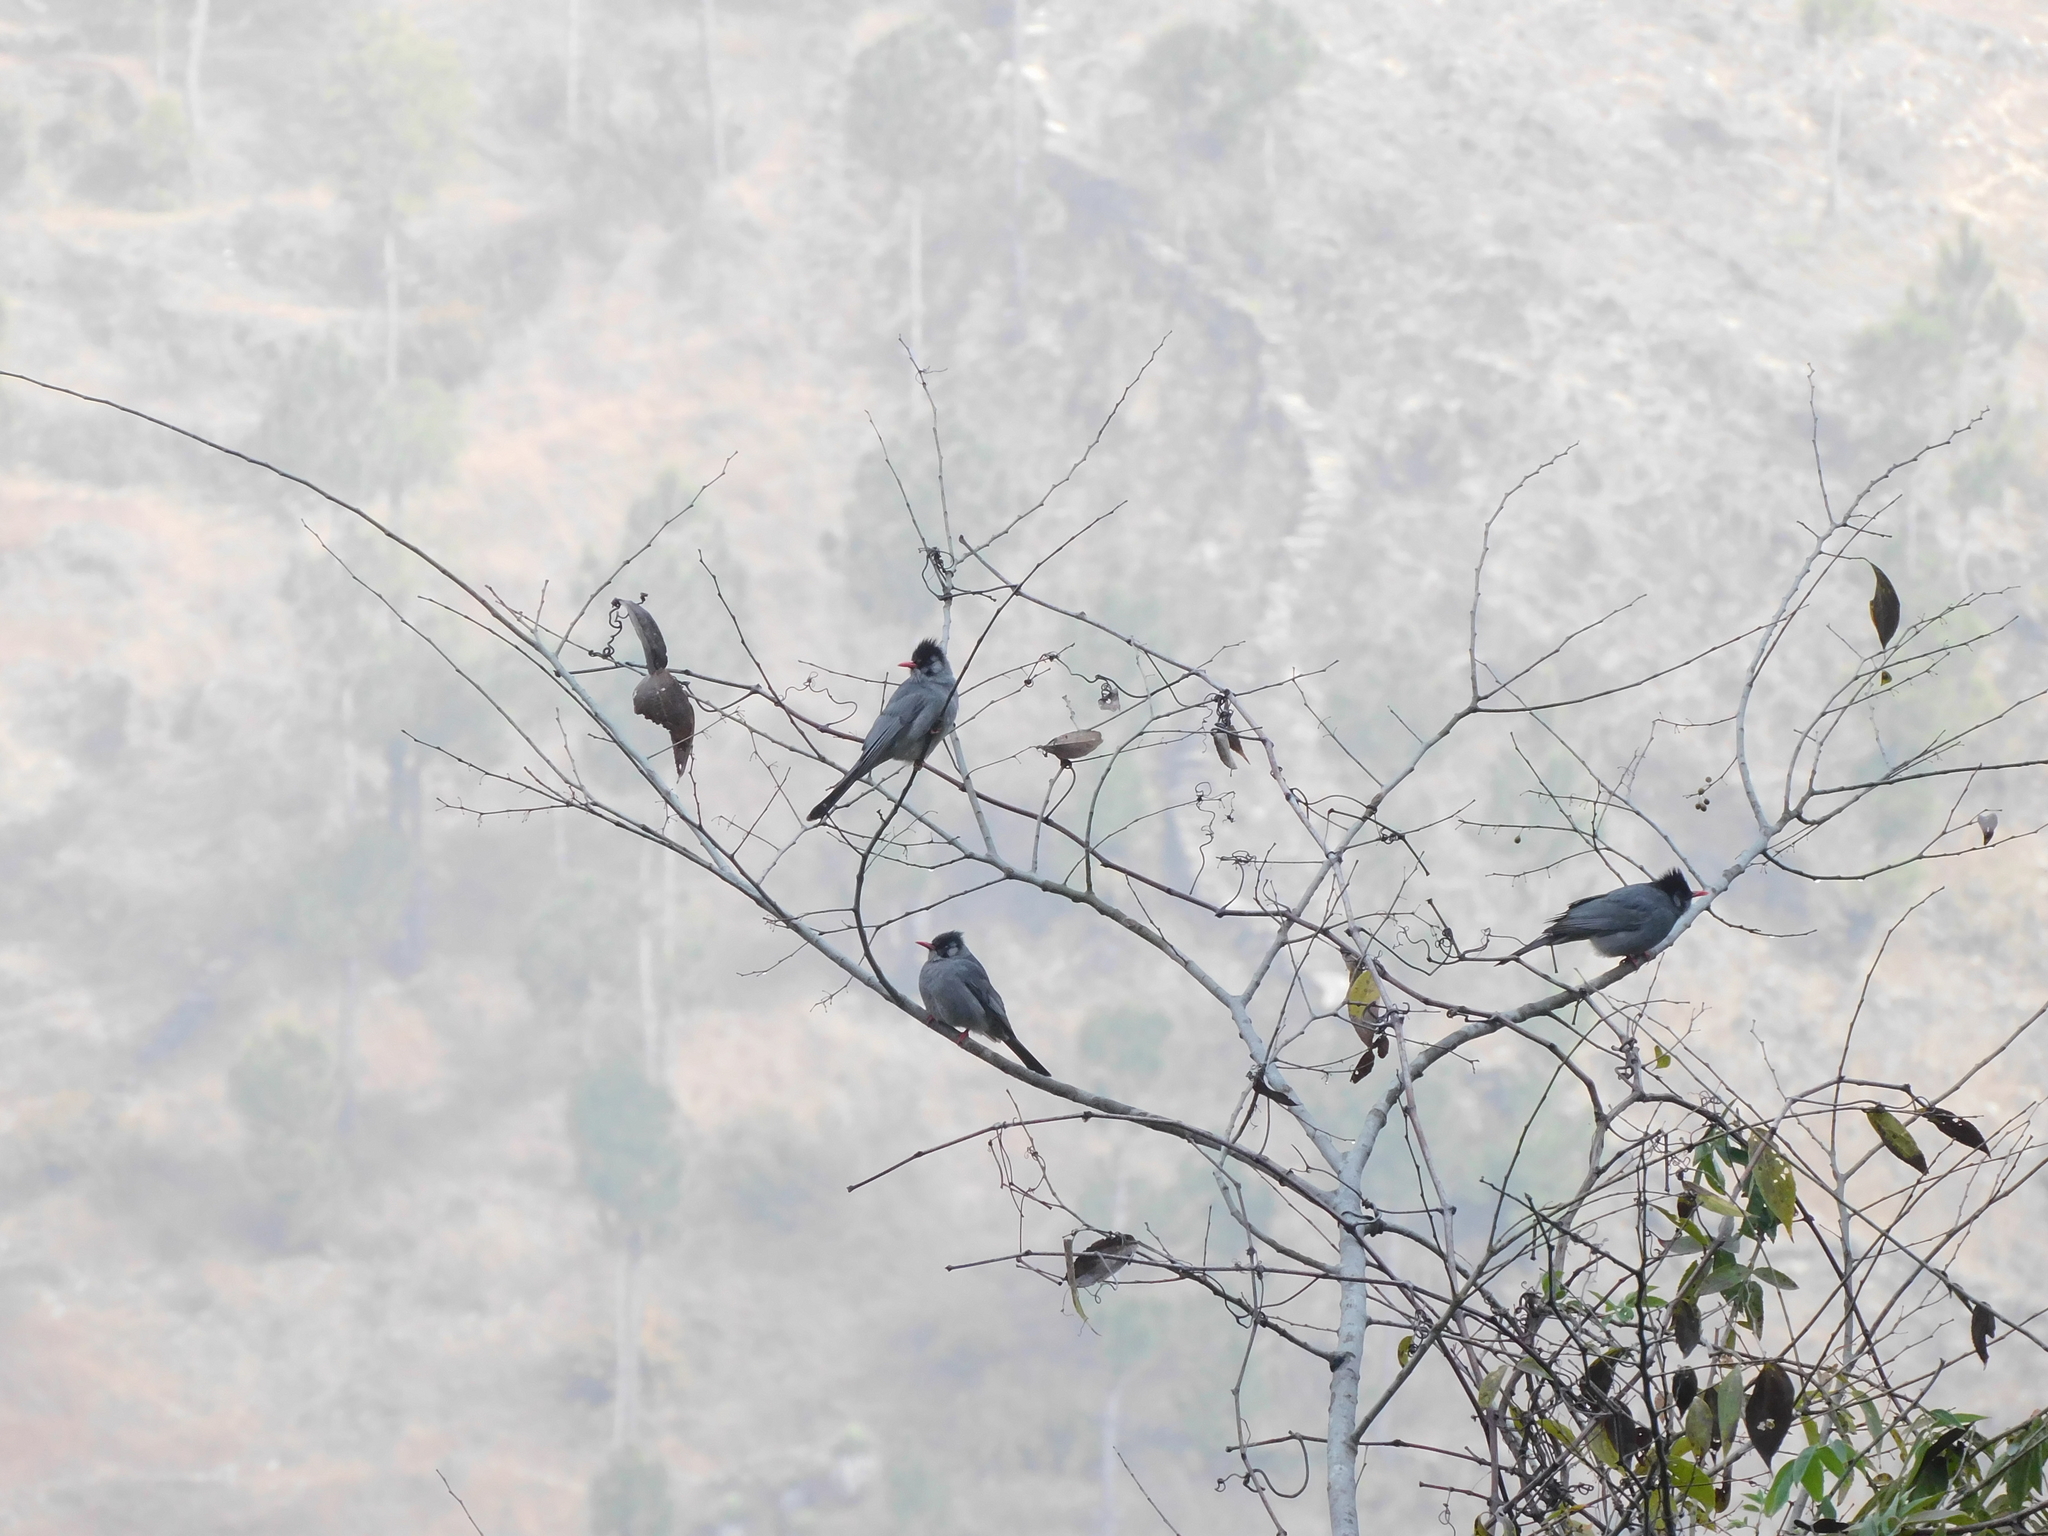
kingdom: Animalia
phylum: Chordata
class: Aves
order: Passeriformes
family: Pycnonotidae
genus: Hypsipetes
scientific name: Hypsipetes leucocephalus
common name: Black bulbul
